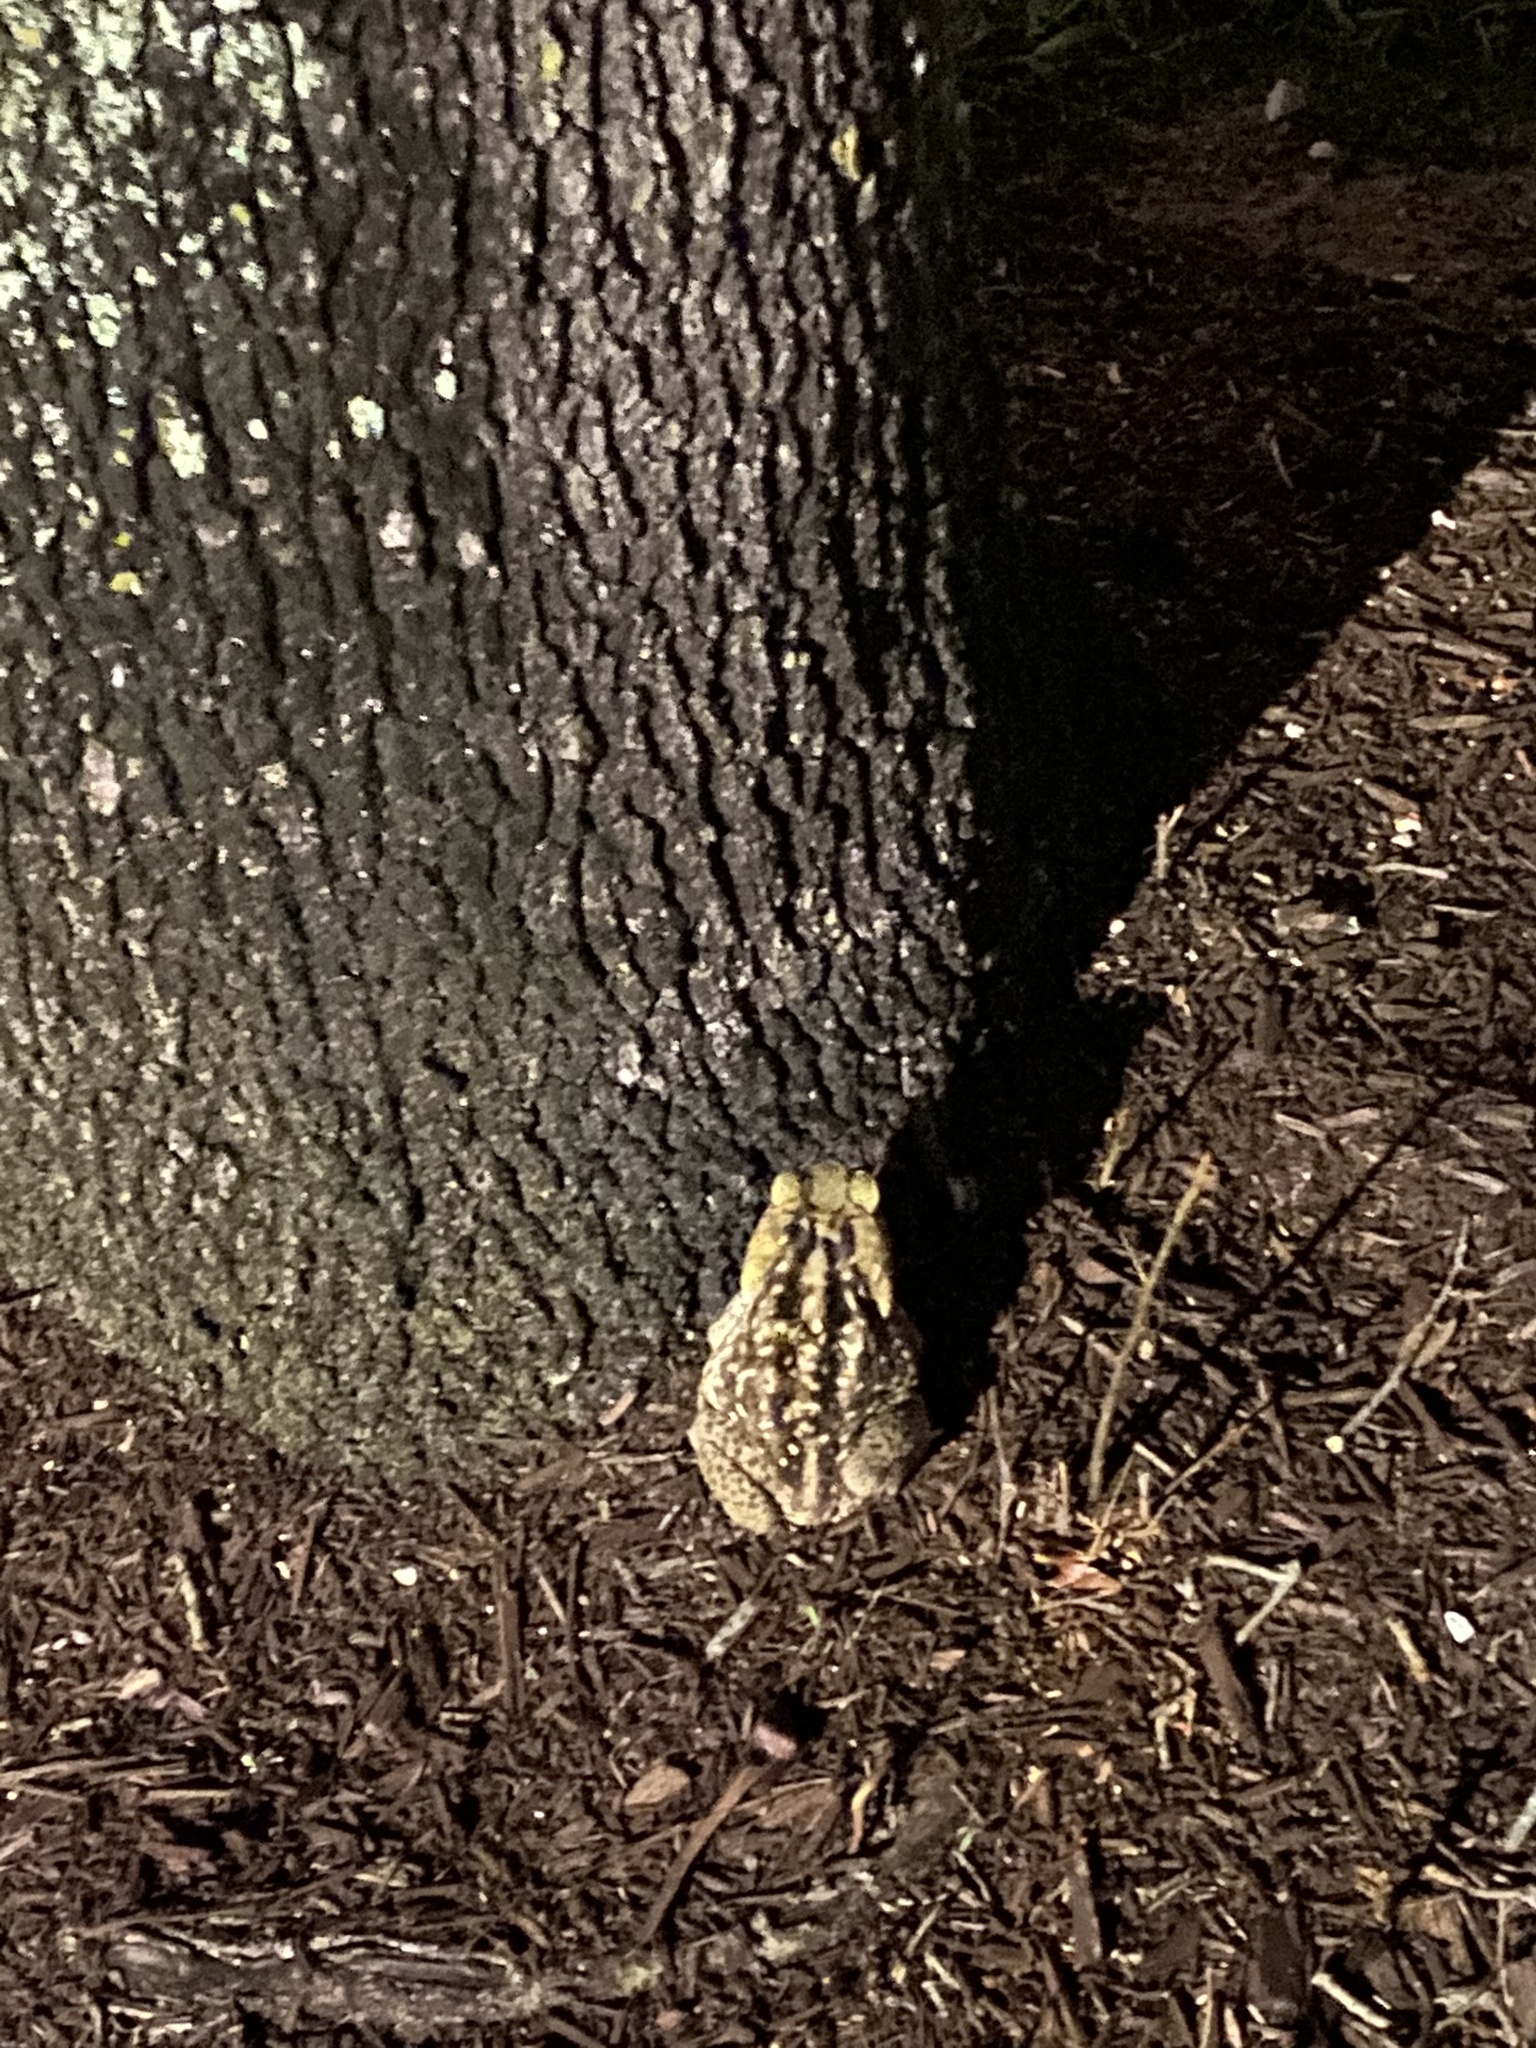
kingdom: Animalia
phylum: Chordata
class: Amphibia
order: Anura
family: Bufonidae
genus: Rhinella
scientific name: Rhinella marina
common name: Cane toad
